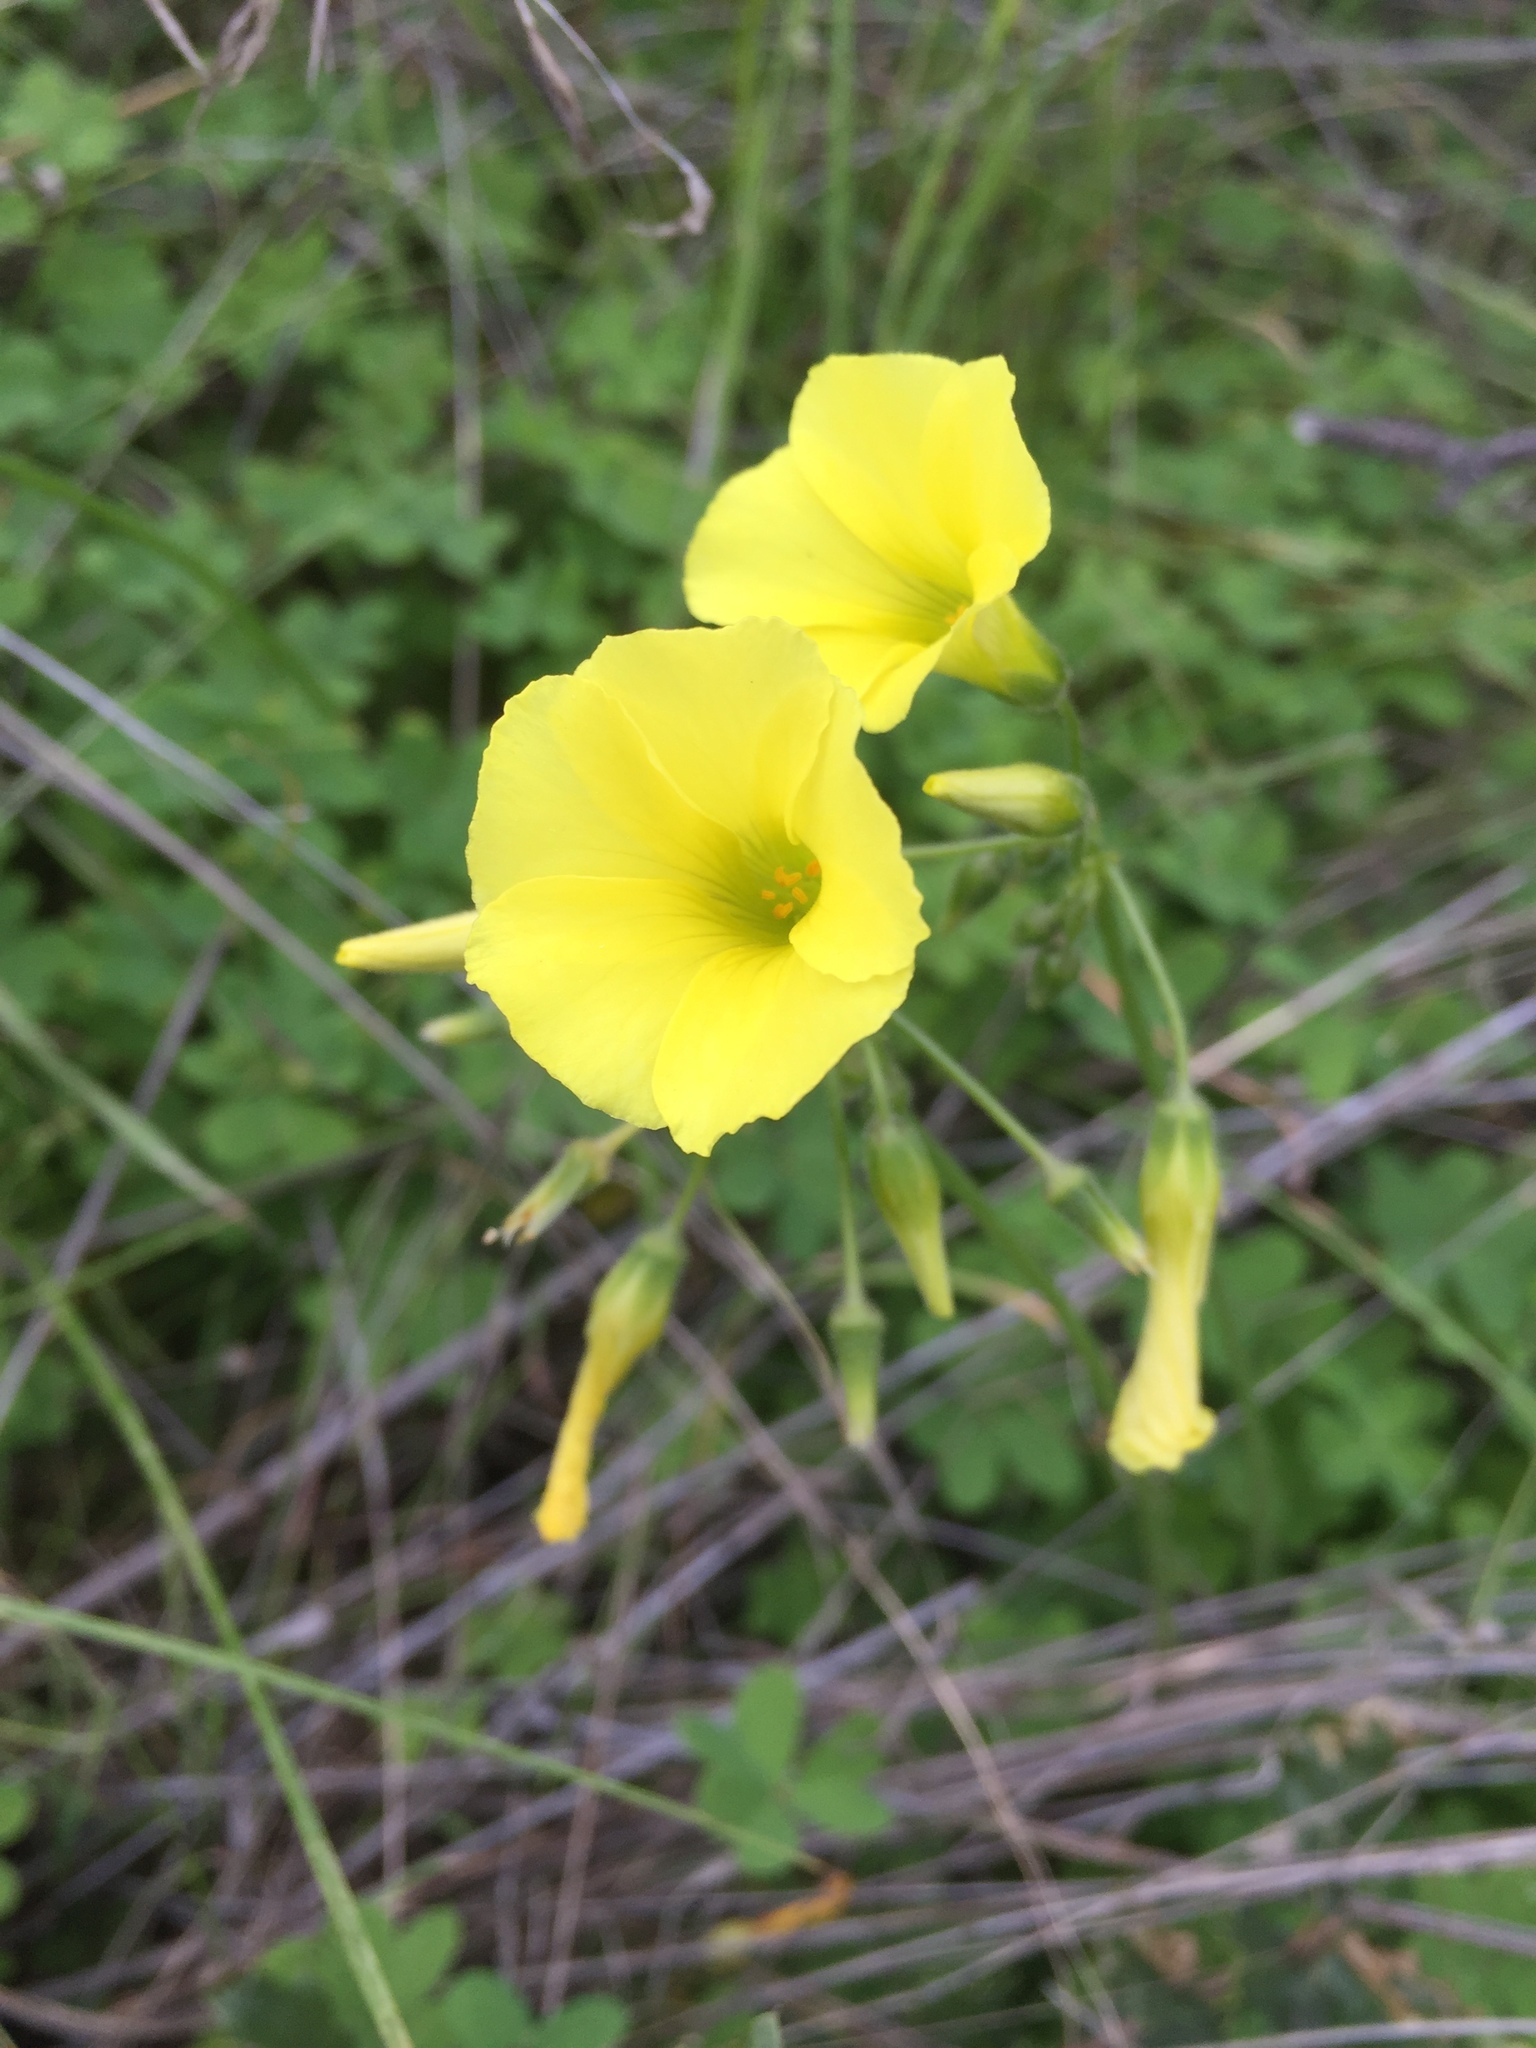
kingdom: Plantae
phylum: Tracheophyta
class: Magnoliopsida
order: Oxalidales
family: Oxalidaceae
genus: Oxalis
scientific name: Oxalis pes-caprae
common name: Bermuda-buttercup
